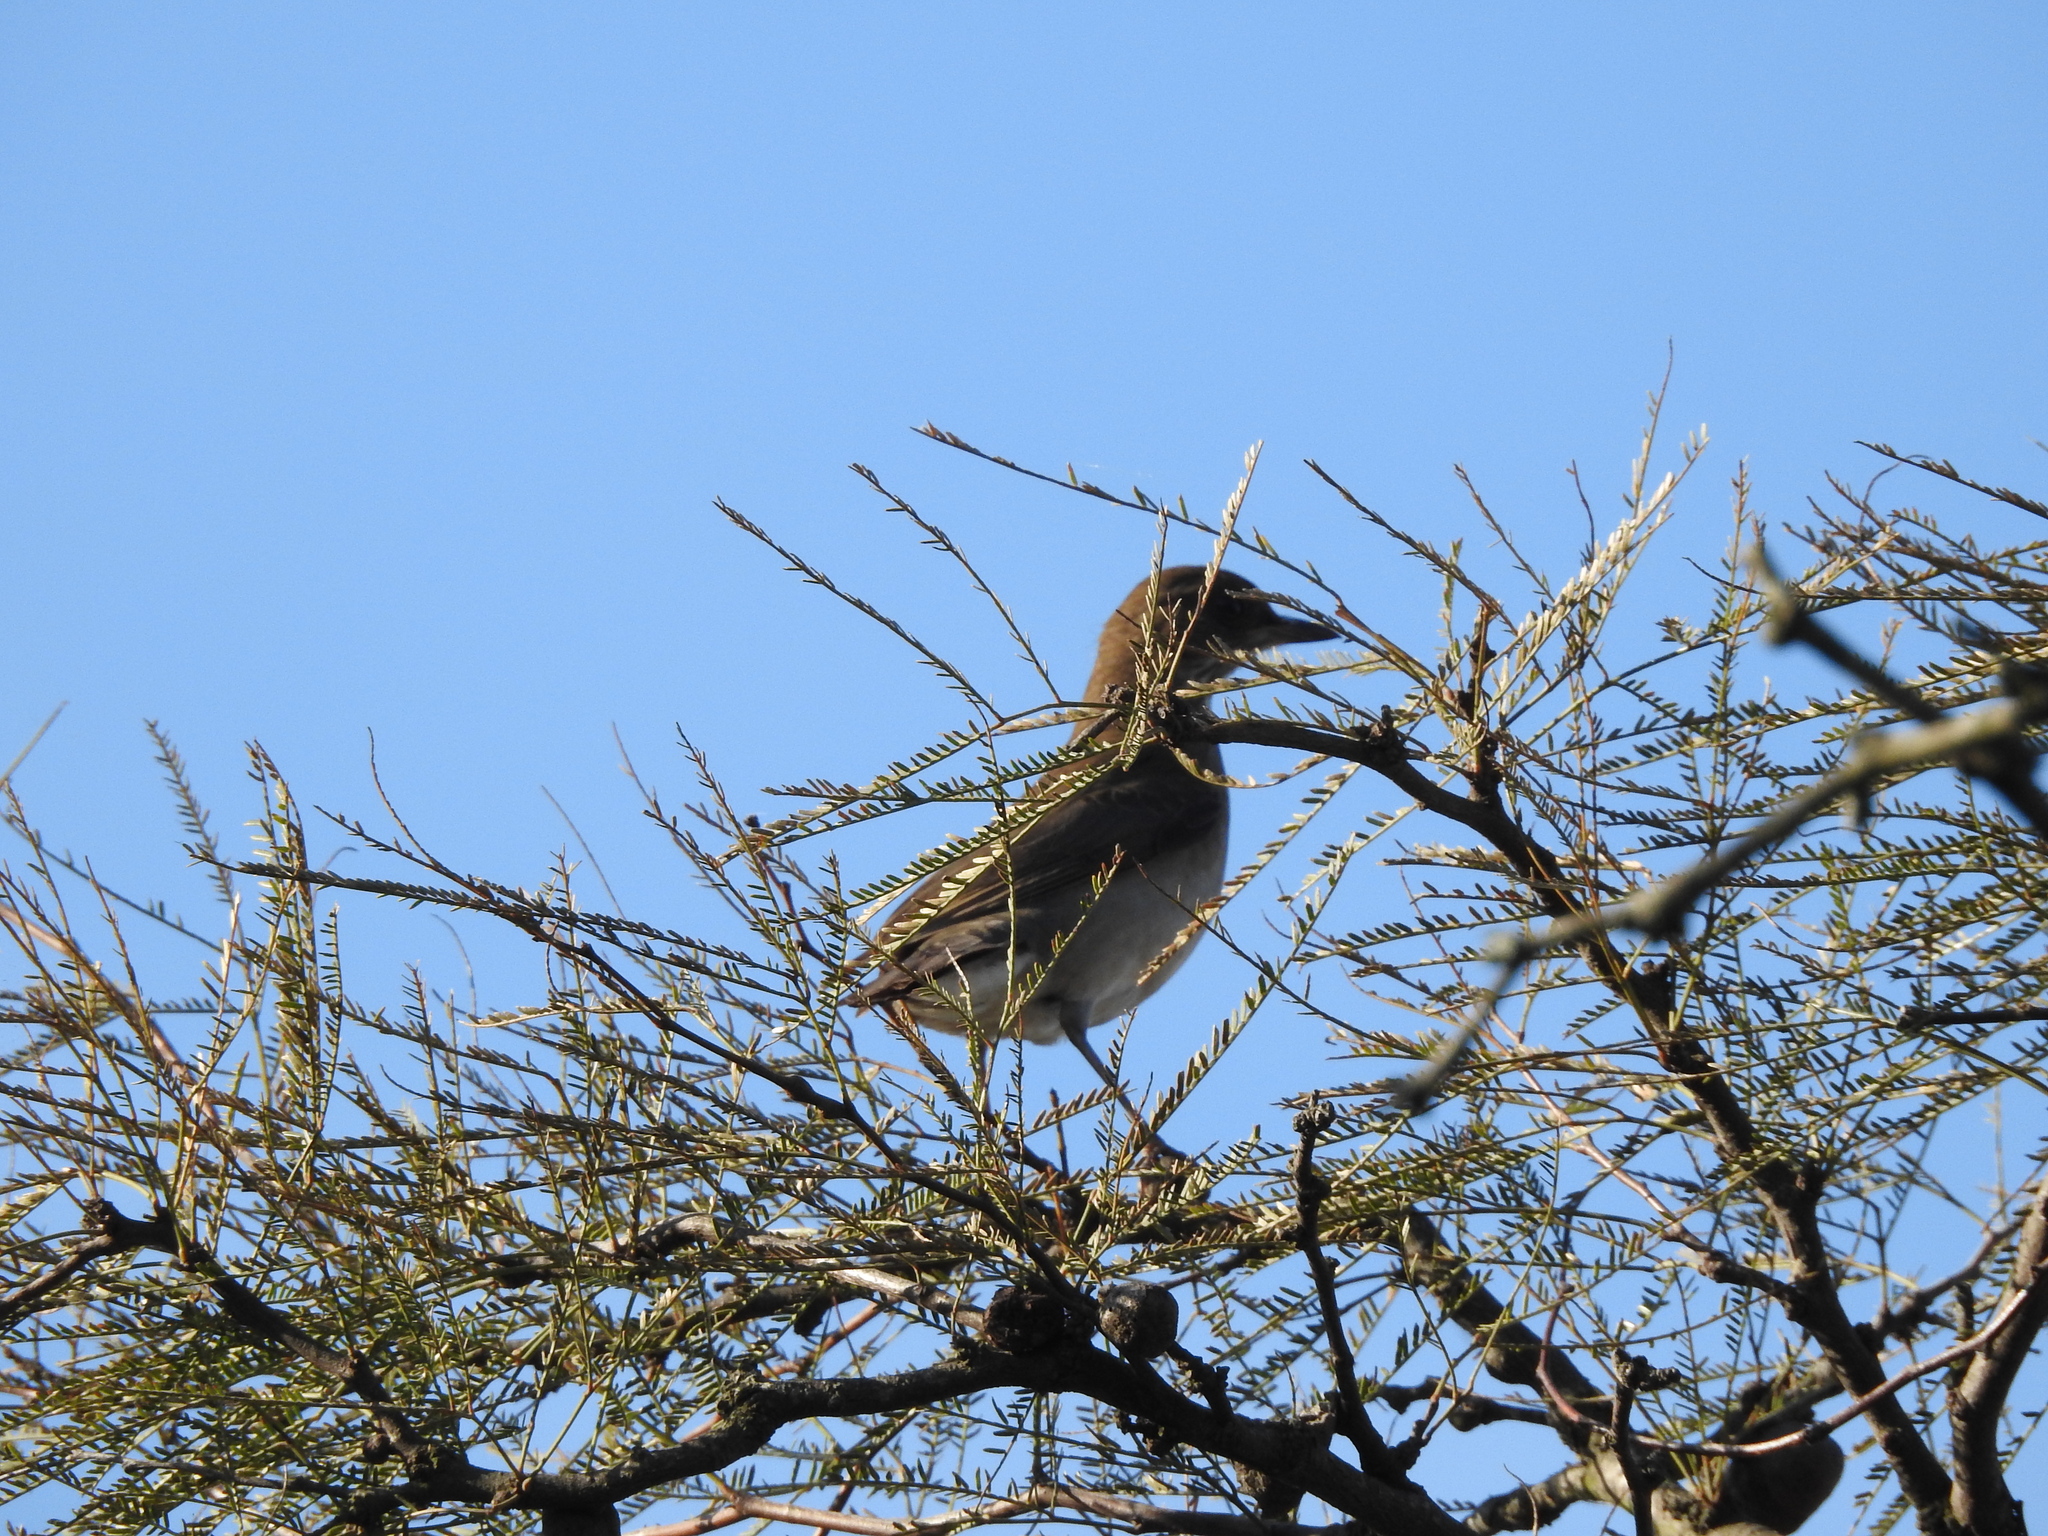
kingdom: Animalia
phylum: Chordata
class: Aves
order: Passeriformes
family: Turdidae
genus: Turdus
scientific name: Turdus amaurochalinus
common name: Creamy-bellied thrush
